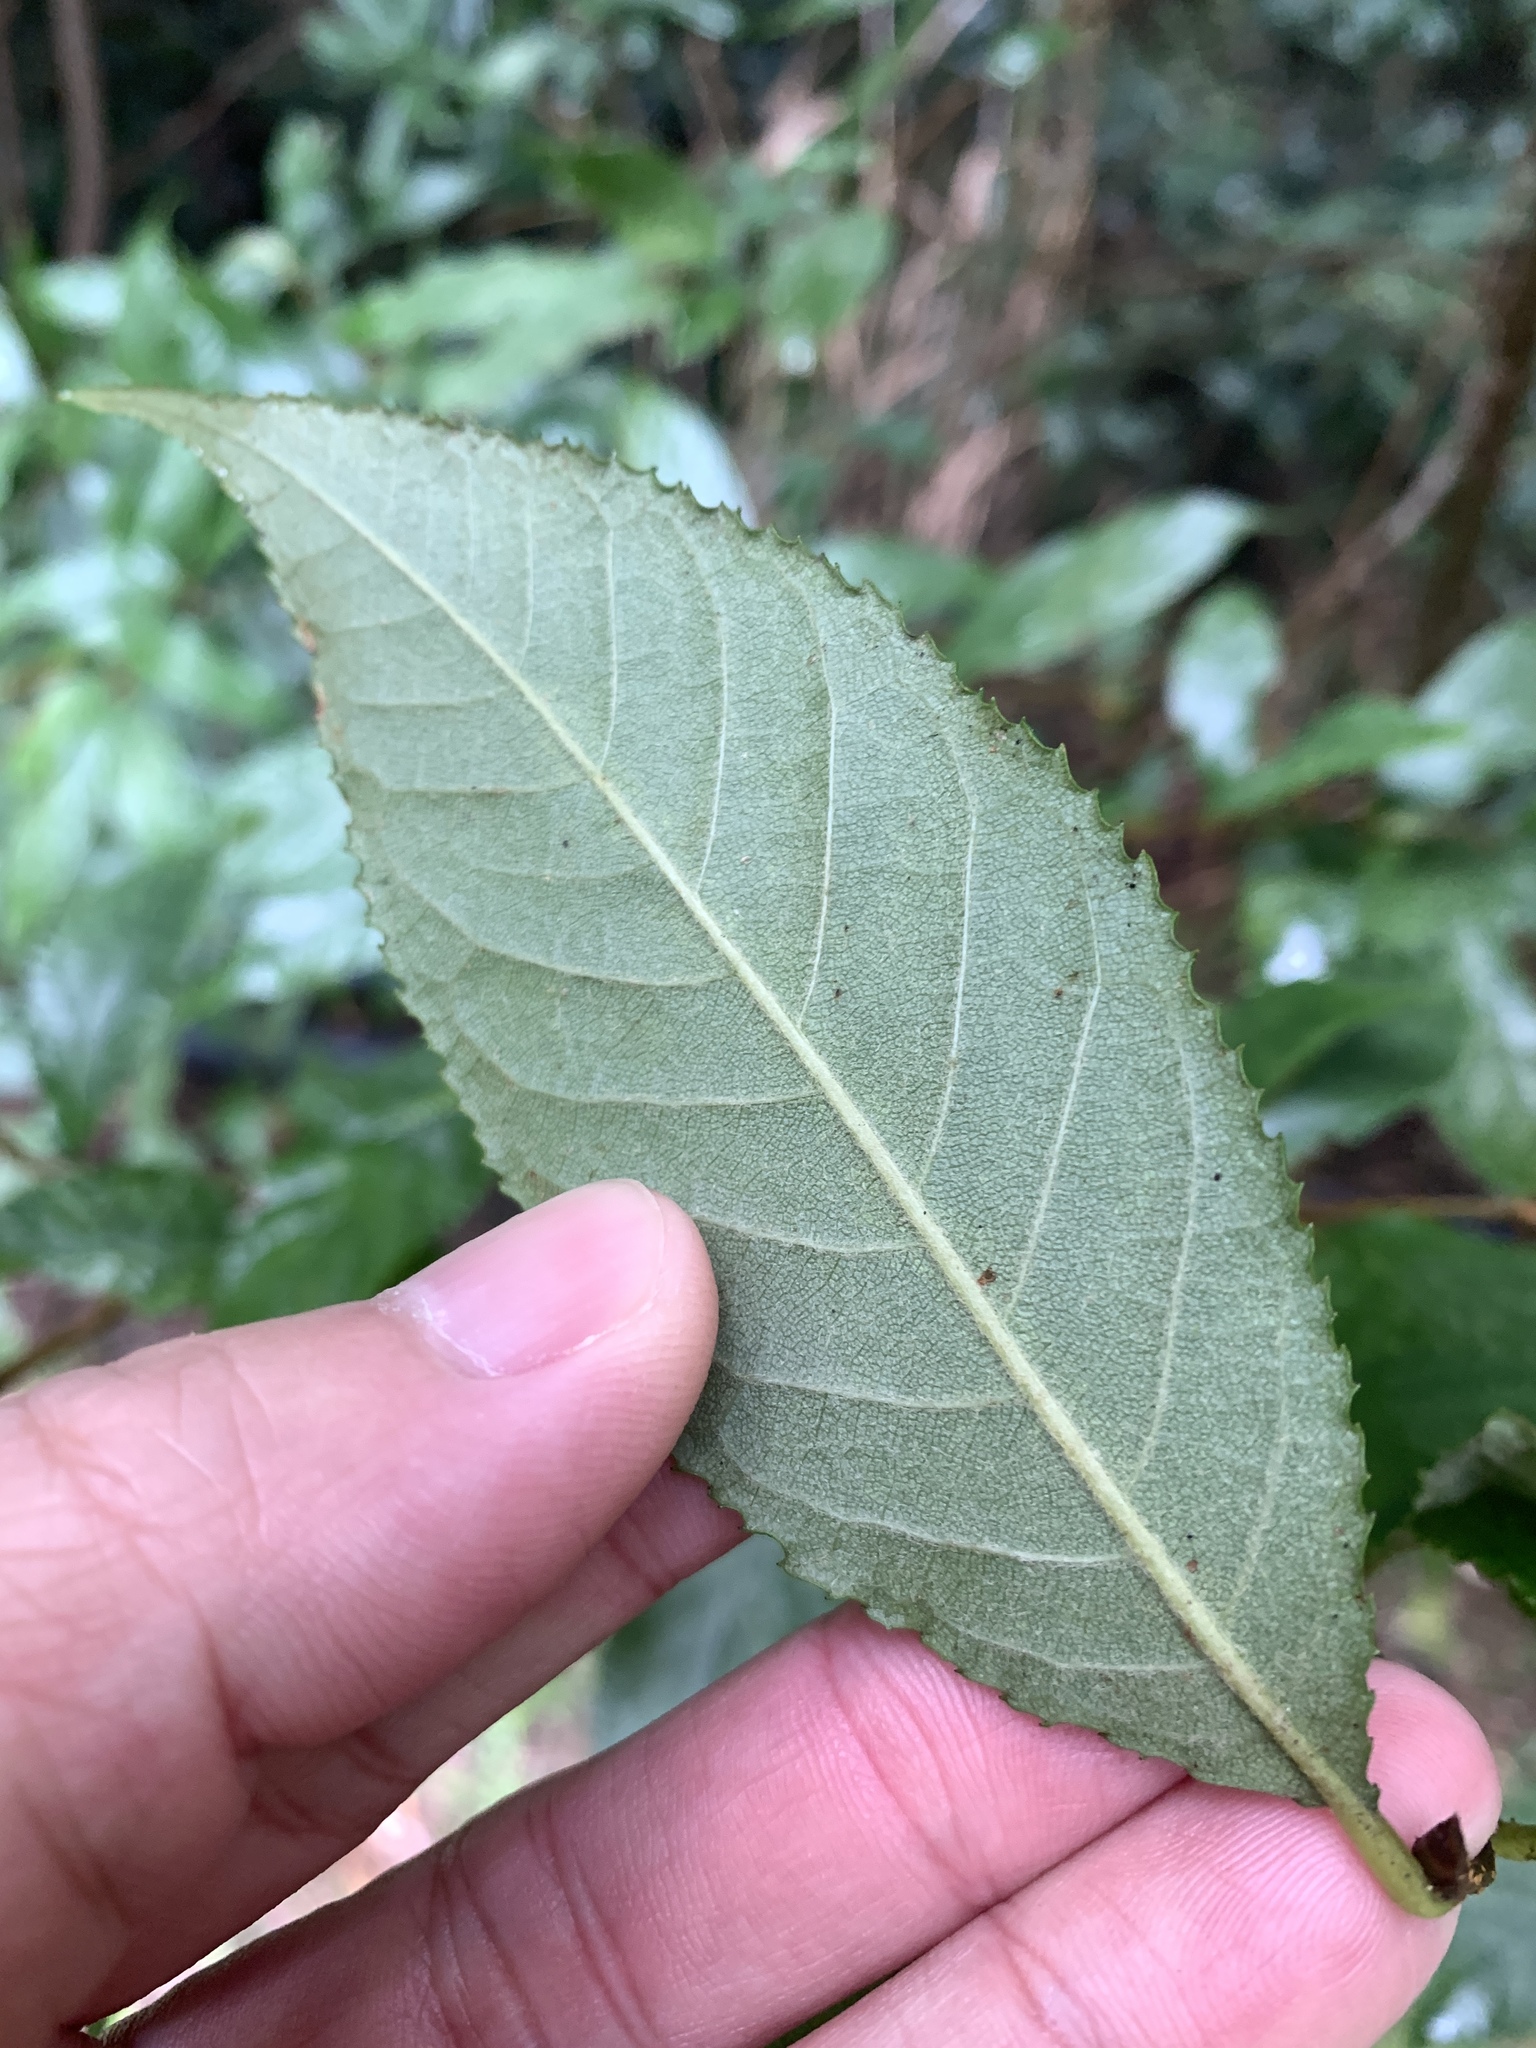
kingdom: Plantae
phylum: Tracheophyta
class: Magnoliopsida
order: Rosales
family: Rosaceae
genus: Pourthiaea
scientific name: Pourthiaea beauverdiana
